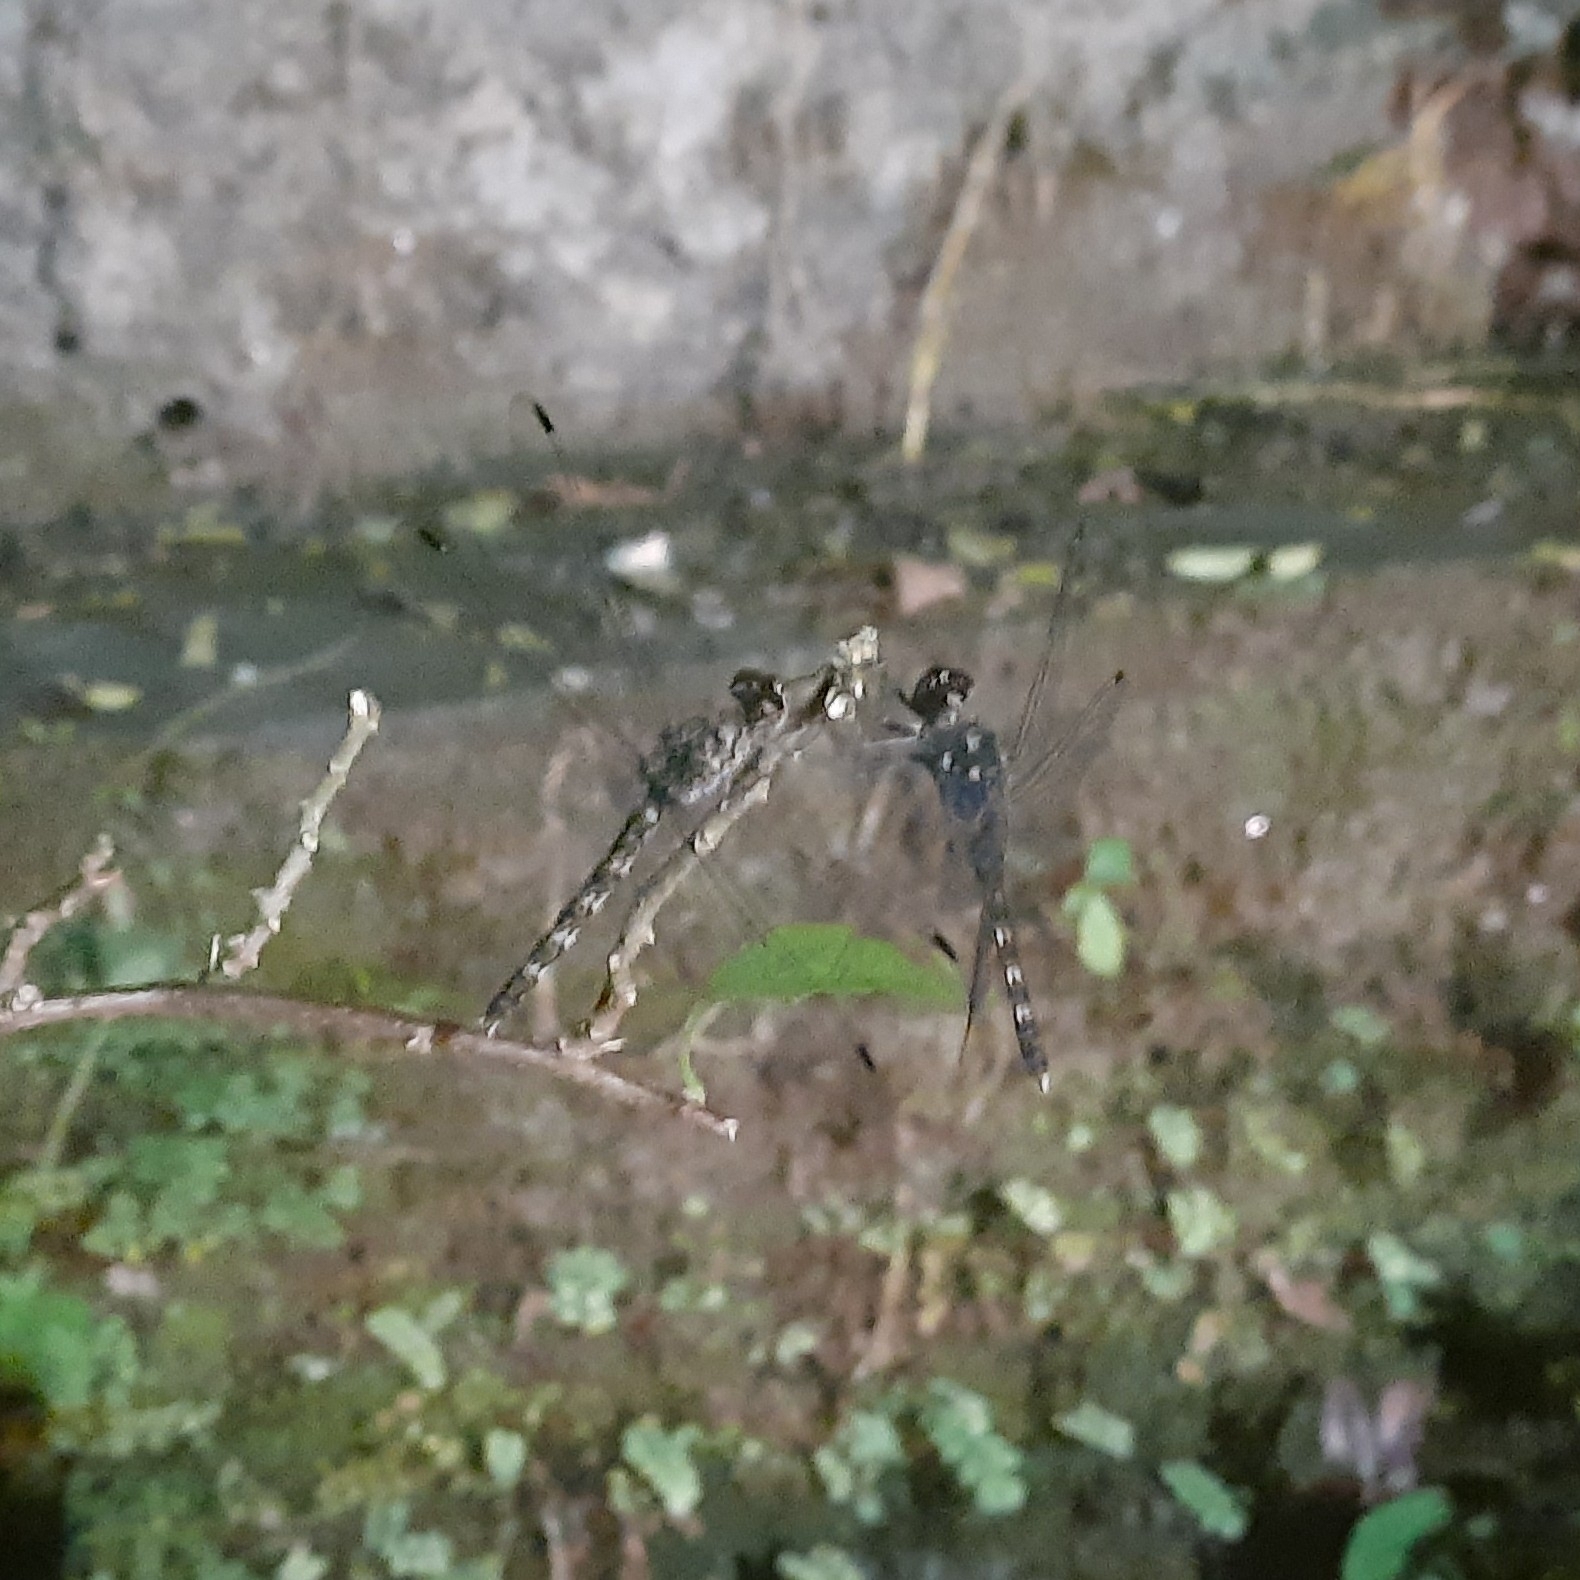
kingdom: Animalia
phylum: Arthropoda
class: Insecta
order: Odonata
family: Libellulidae
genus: Bradinopyga
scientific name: Bradinopyga geminata
